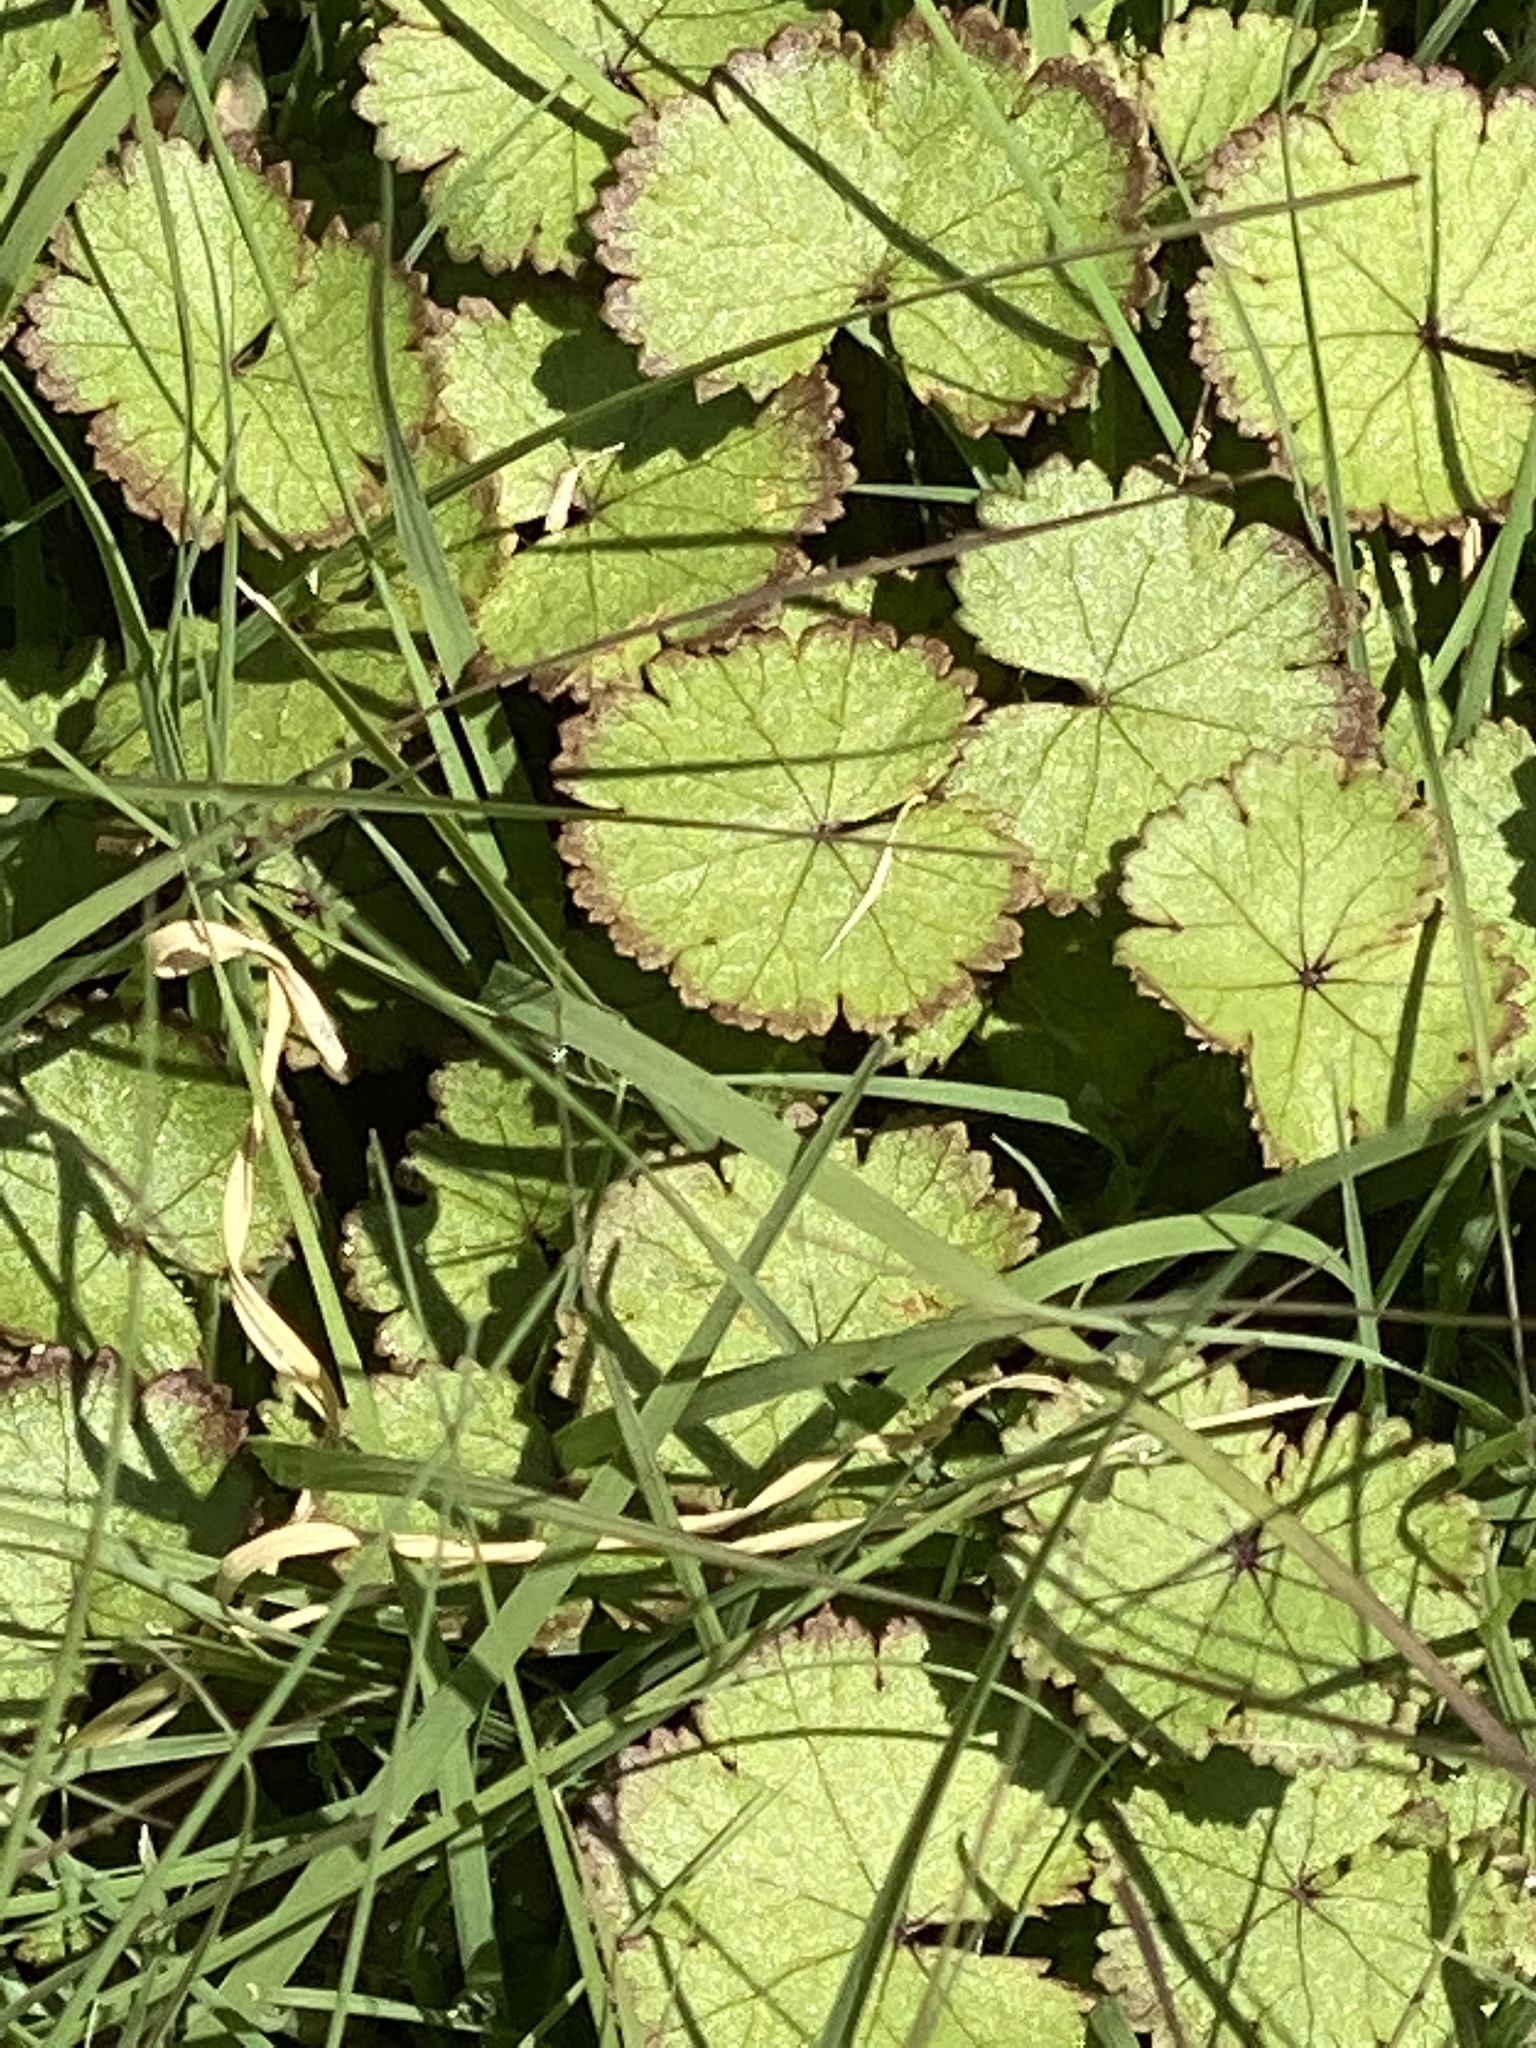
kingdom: Plantae
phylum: Tracheophyta
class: Magnoliopsida
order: Apiales
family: Araliaceae
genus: Hydrocotyle
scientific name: Hydrocotyle moschata
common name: Hairy pennywort
